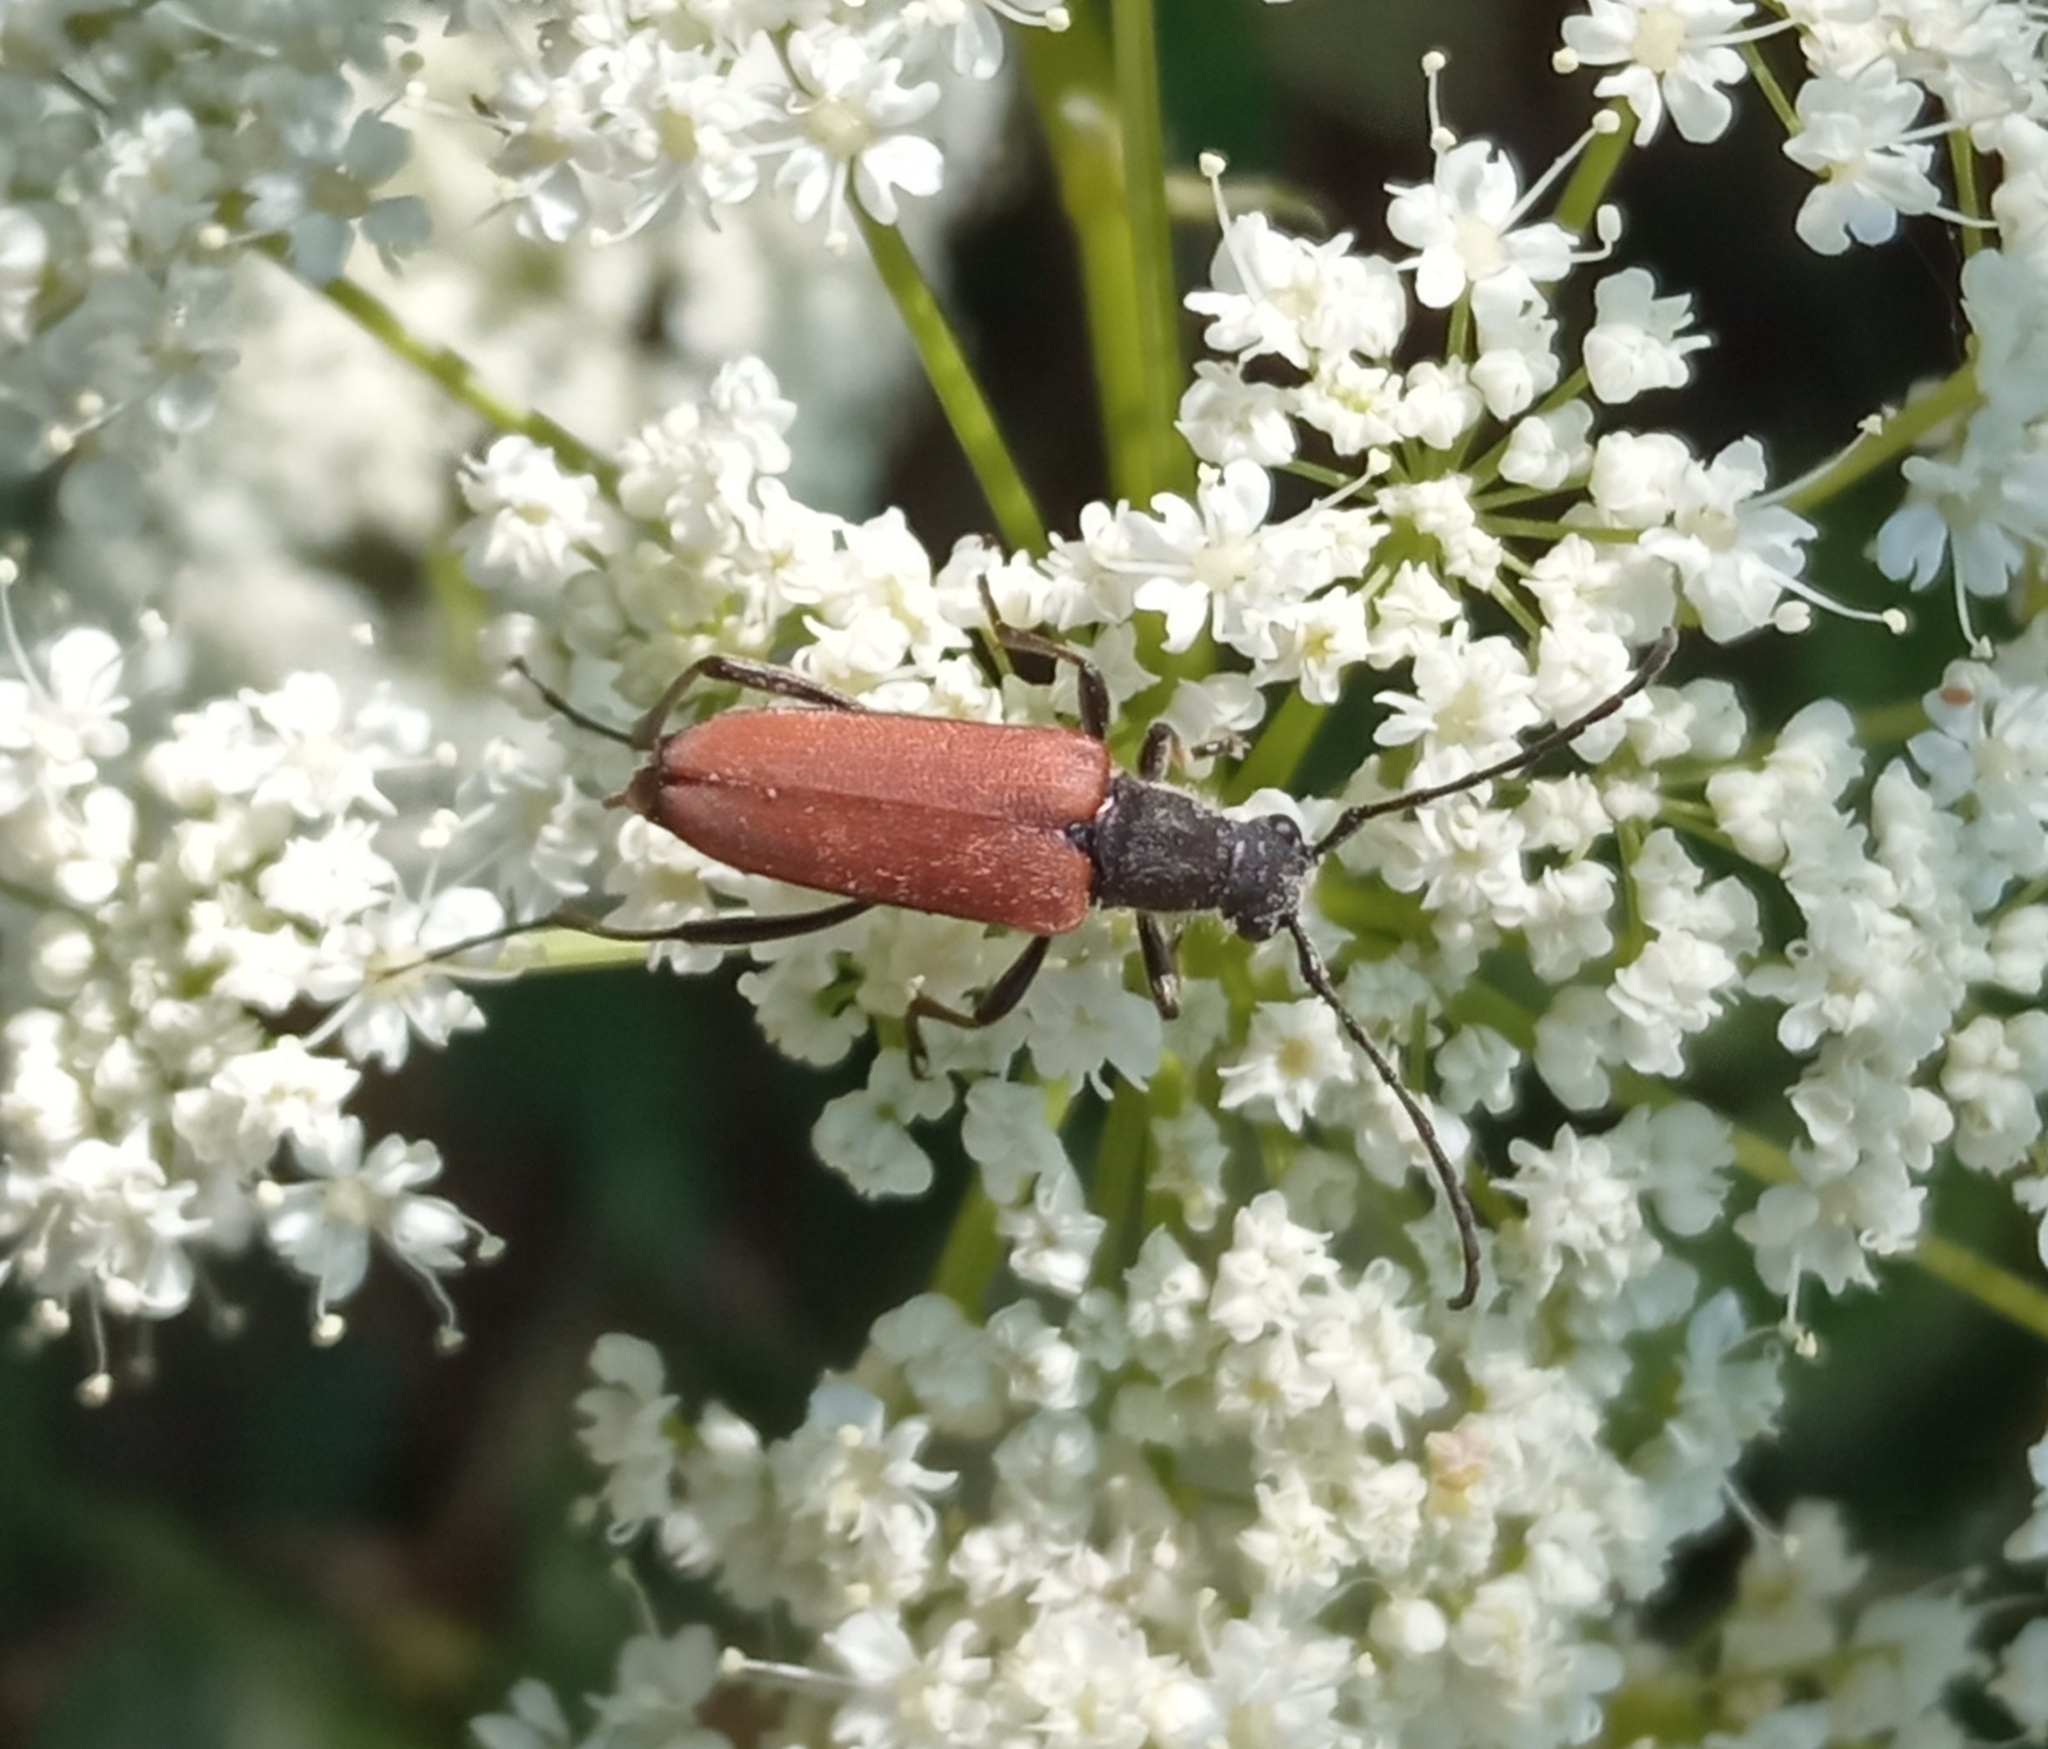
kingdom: Animalia
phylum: Arthropoda
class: Insecta
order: Coleoptera
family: Cerambycidae
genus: Anastrangalia
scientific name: Anastrangalia sanguinolenta
